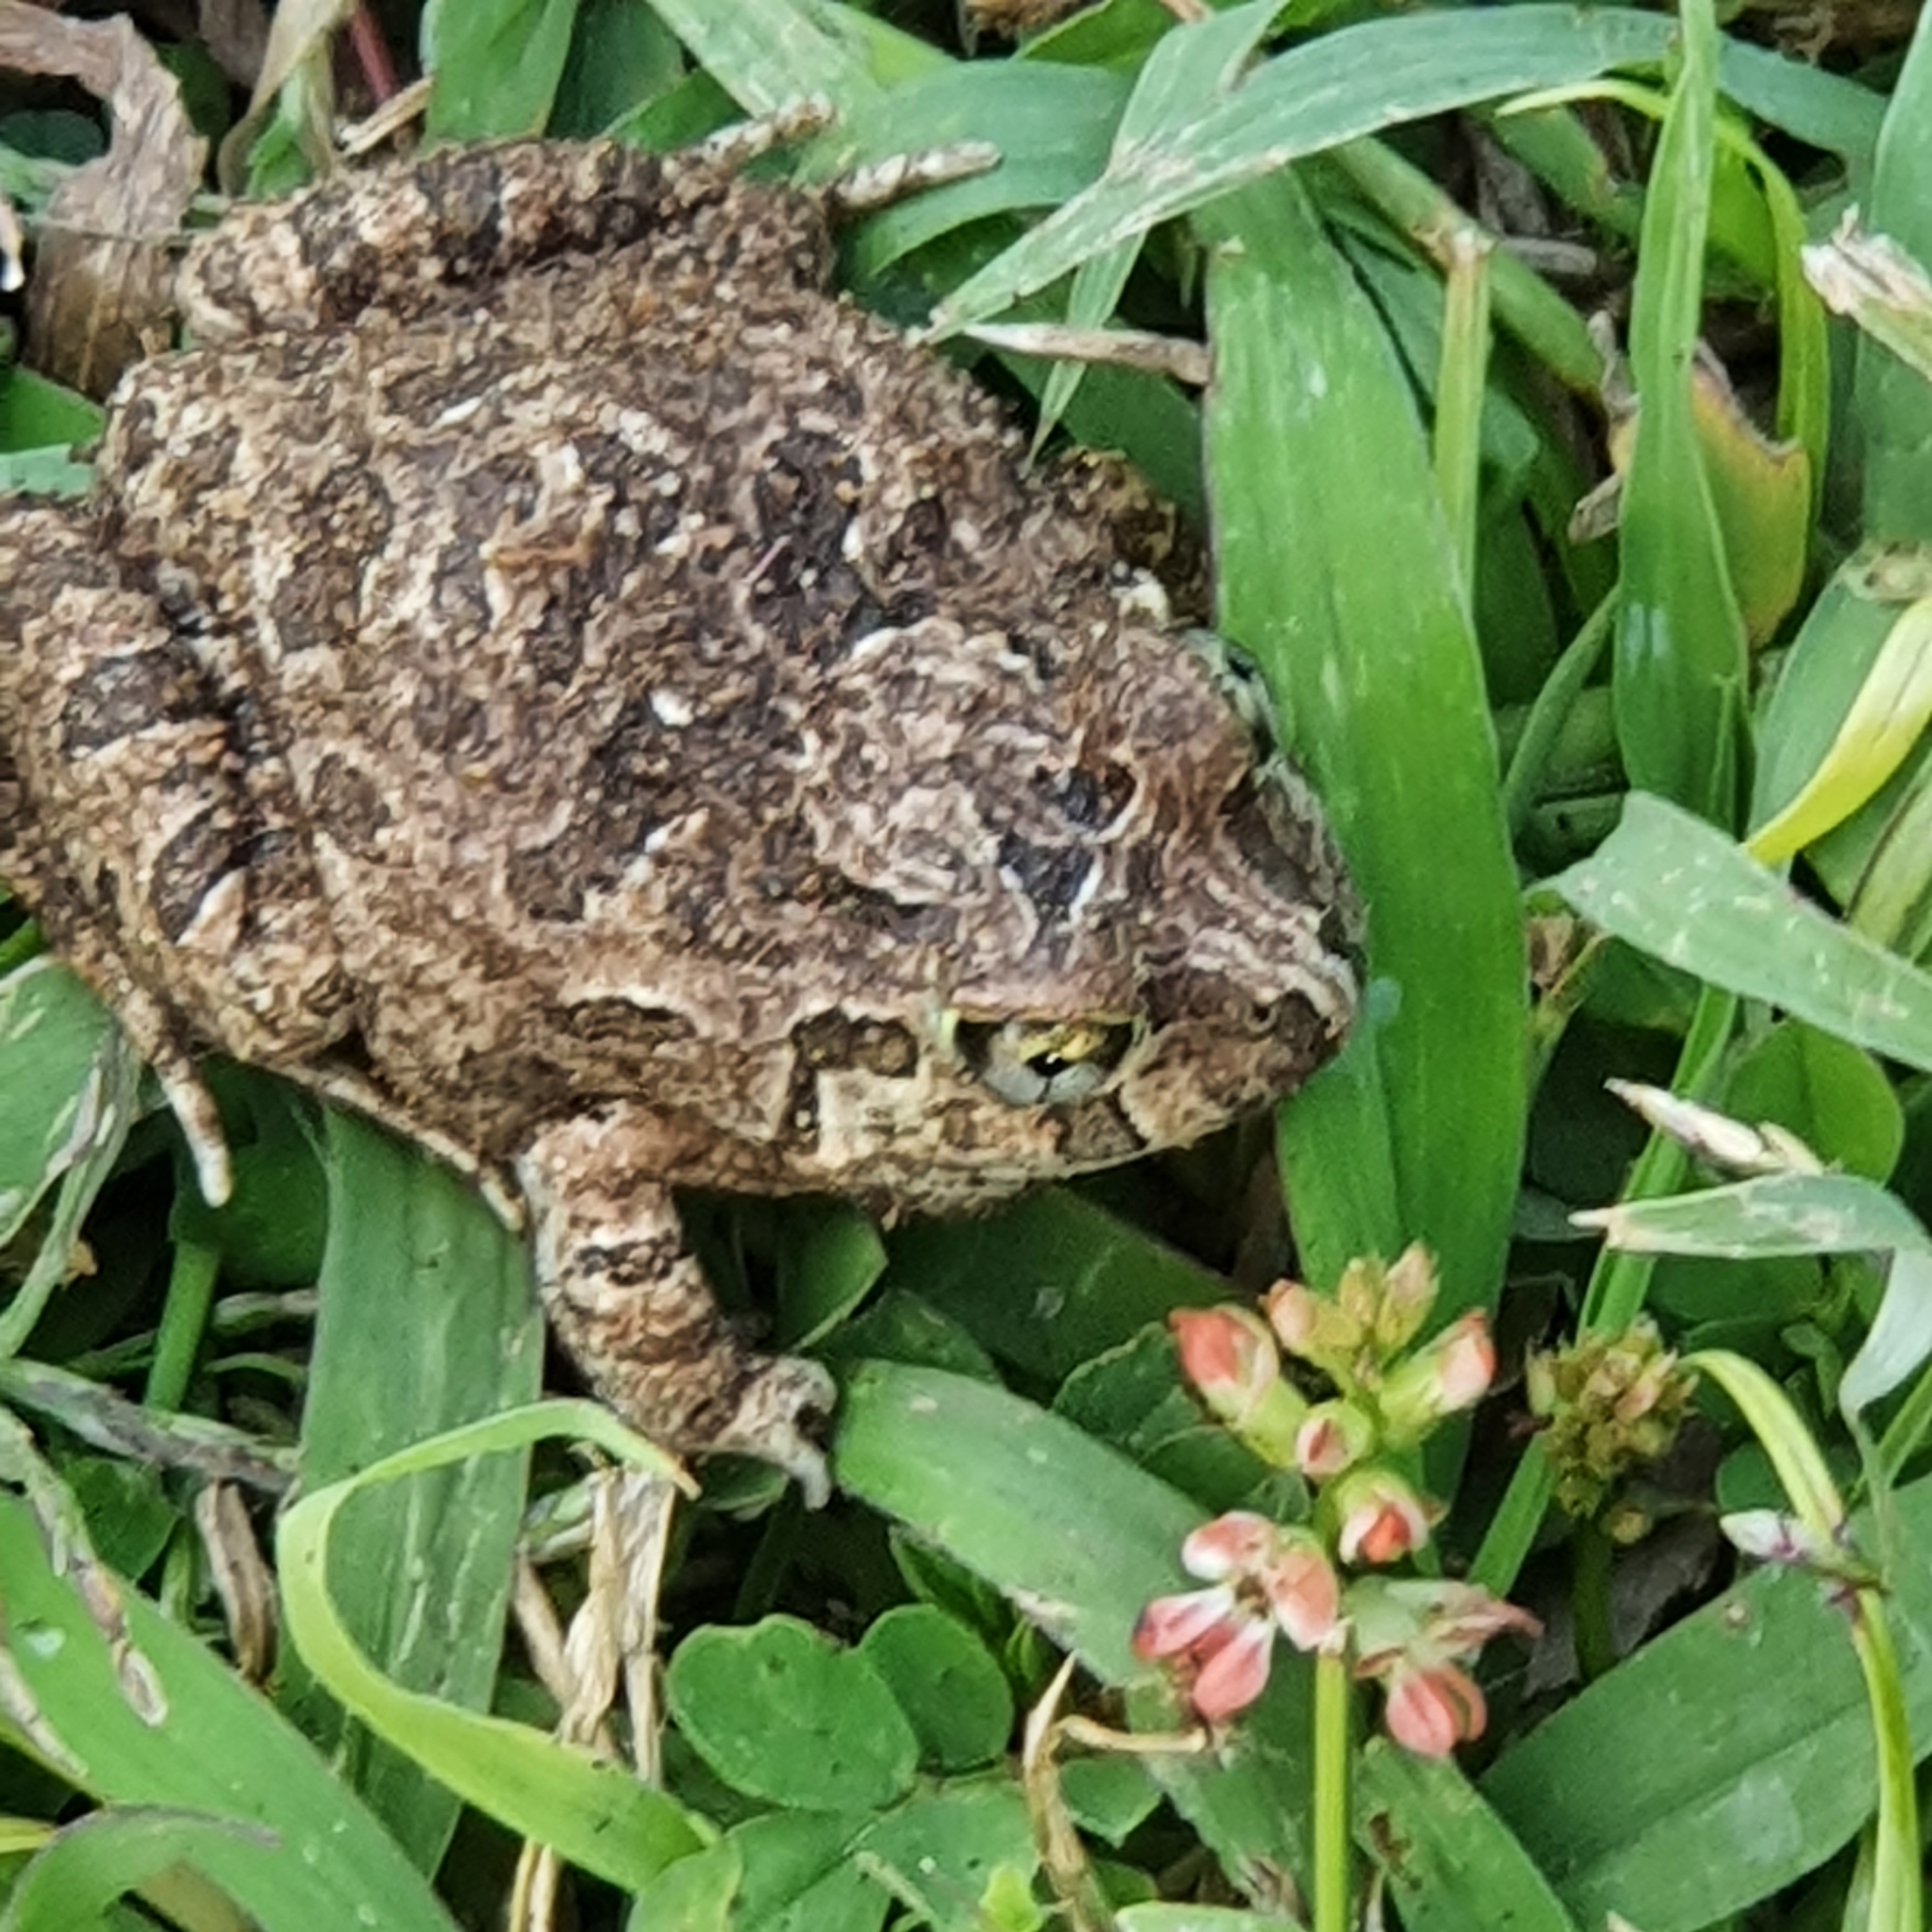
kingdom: Animalia
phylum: Chordata
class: Amphibia
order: Anura
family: Limnodynastidae
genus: Platyplectrum
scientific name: Platyplectrum ornatum
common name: Ornate burrowing frog
